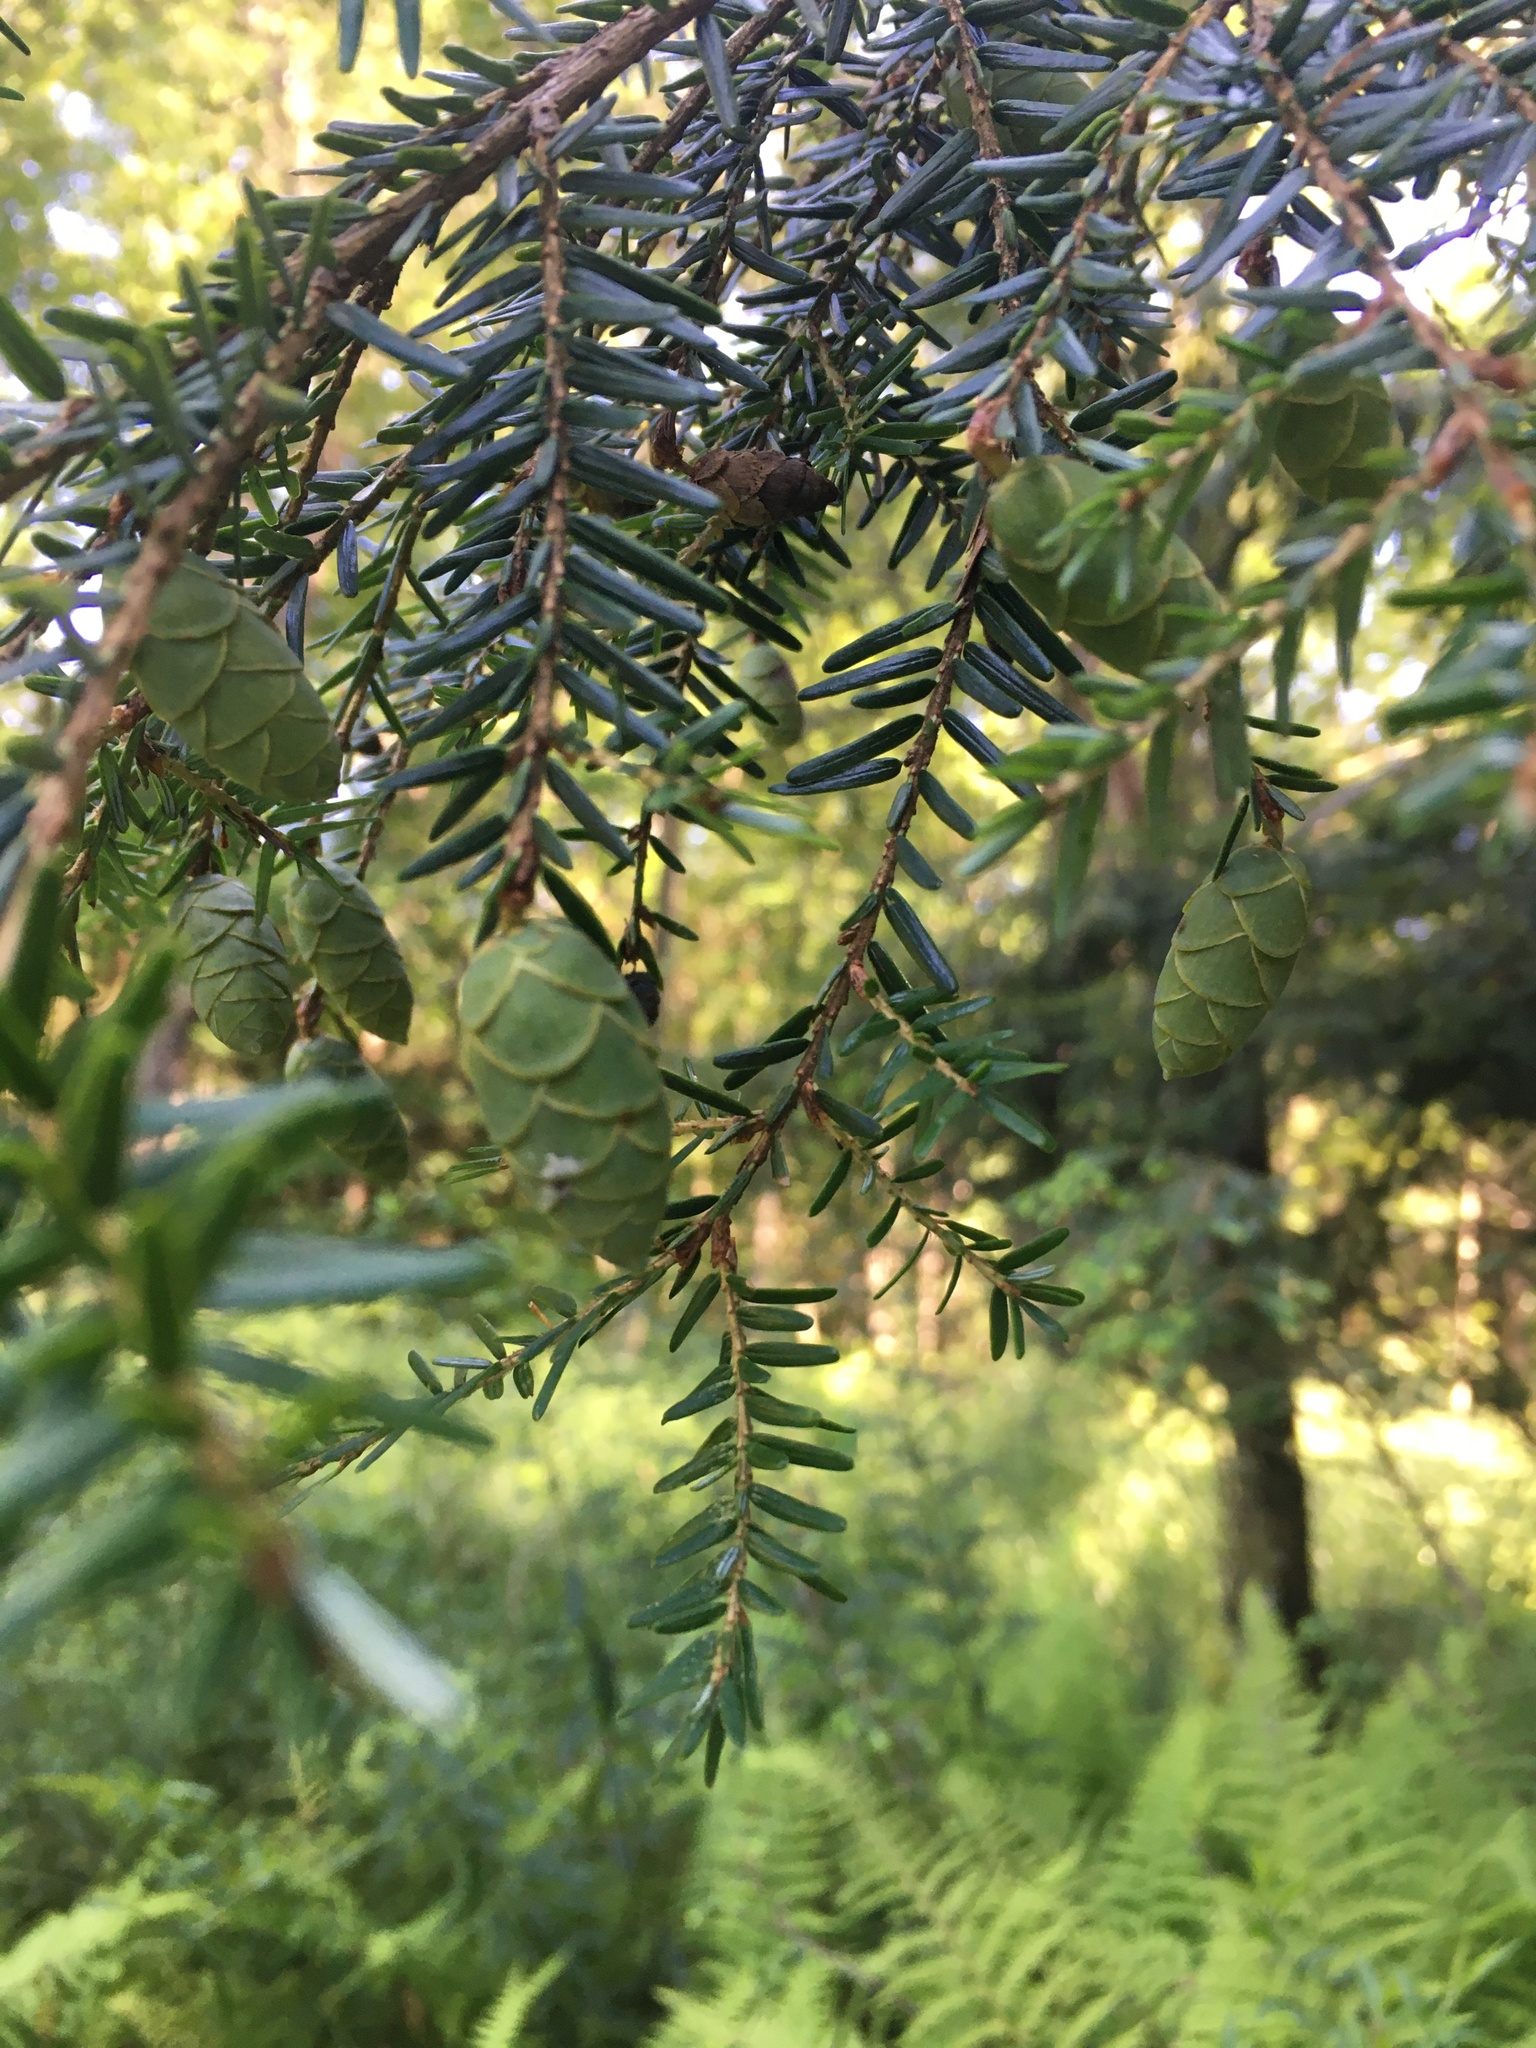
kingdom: Plantae
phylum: Tracheophyta
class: Pinopsida
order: Pinales
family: Pinaceae
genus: Tsuga
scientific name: Tsuga canadensis
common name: Eastern hemlock
